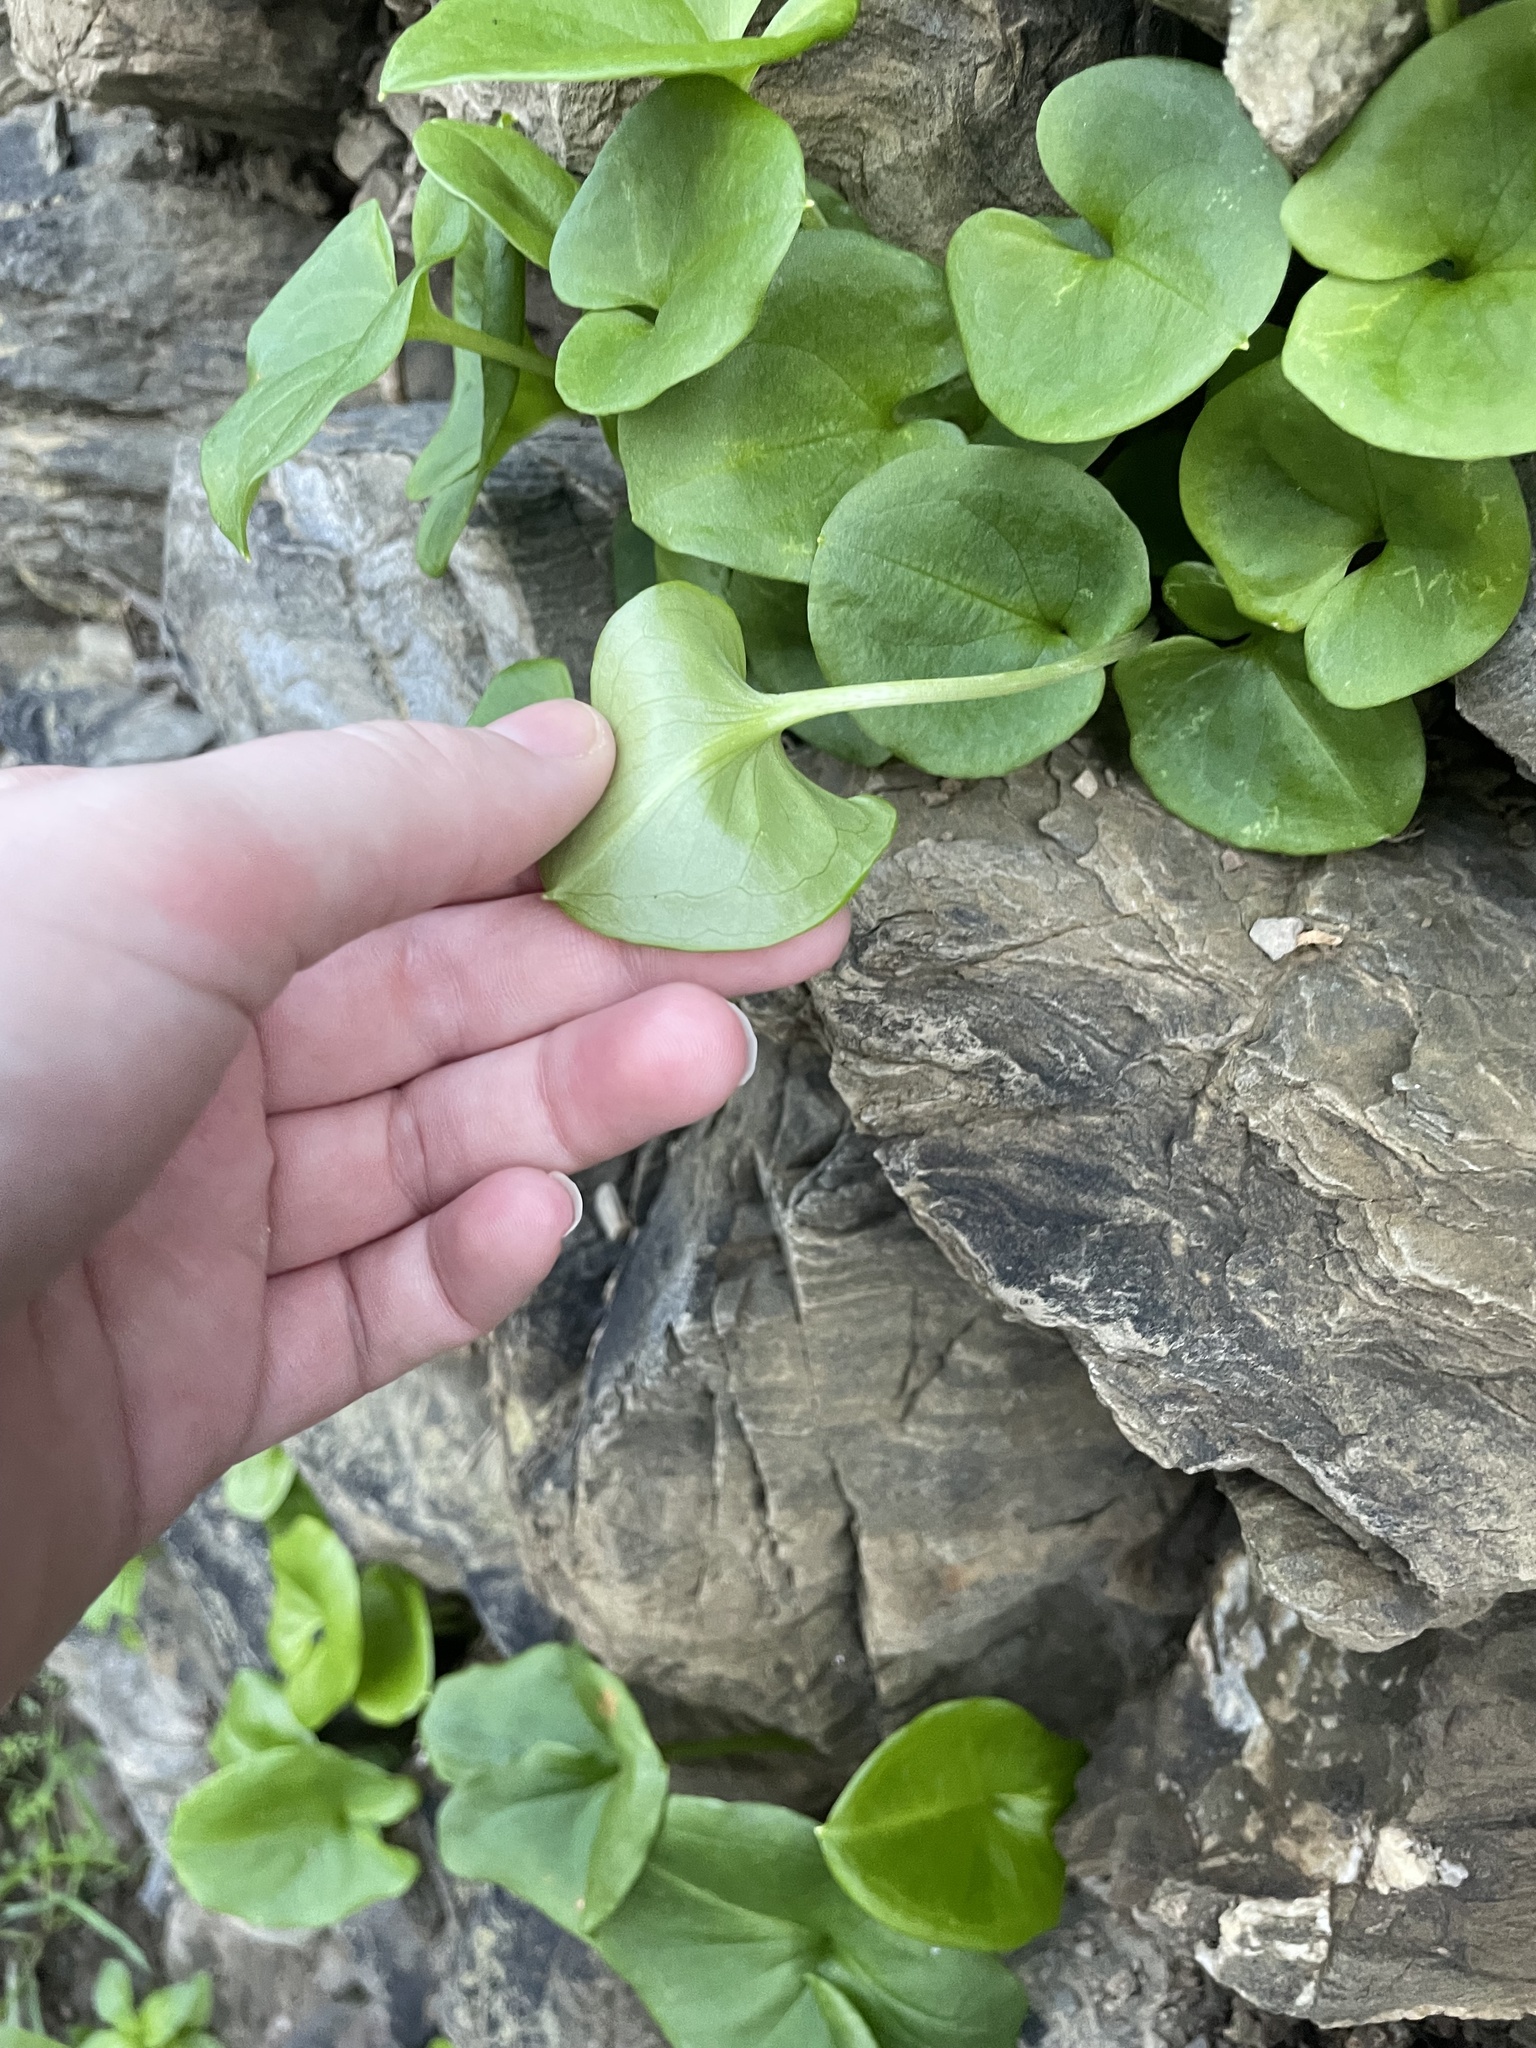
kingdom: Plantae
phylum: Tracheophyta
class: Liliopsida
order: Alismatales
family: Araceae
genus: Arisarum
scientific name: Arisarum vulgare
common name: Common arisarum
